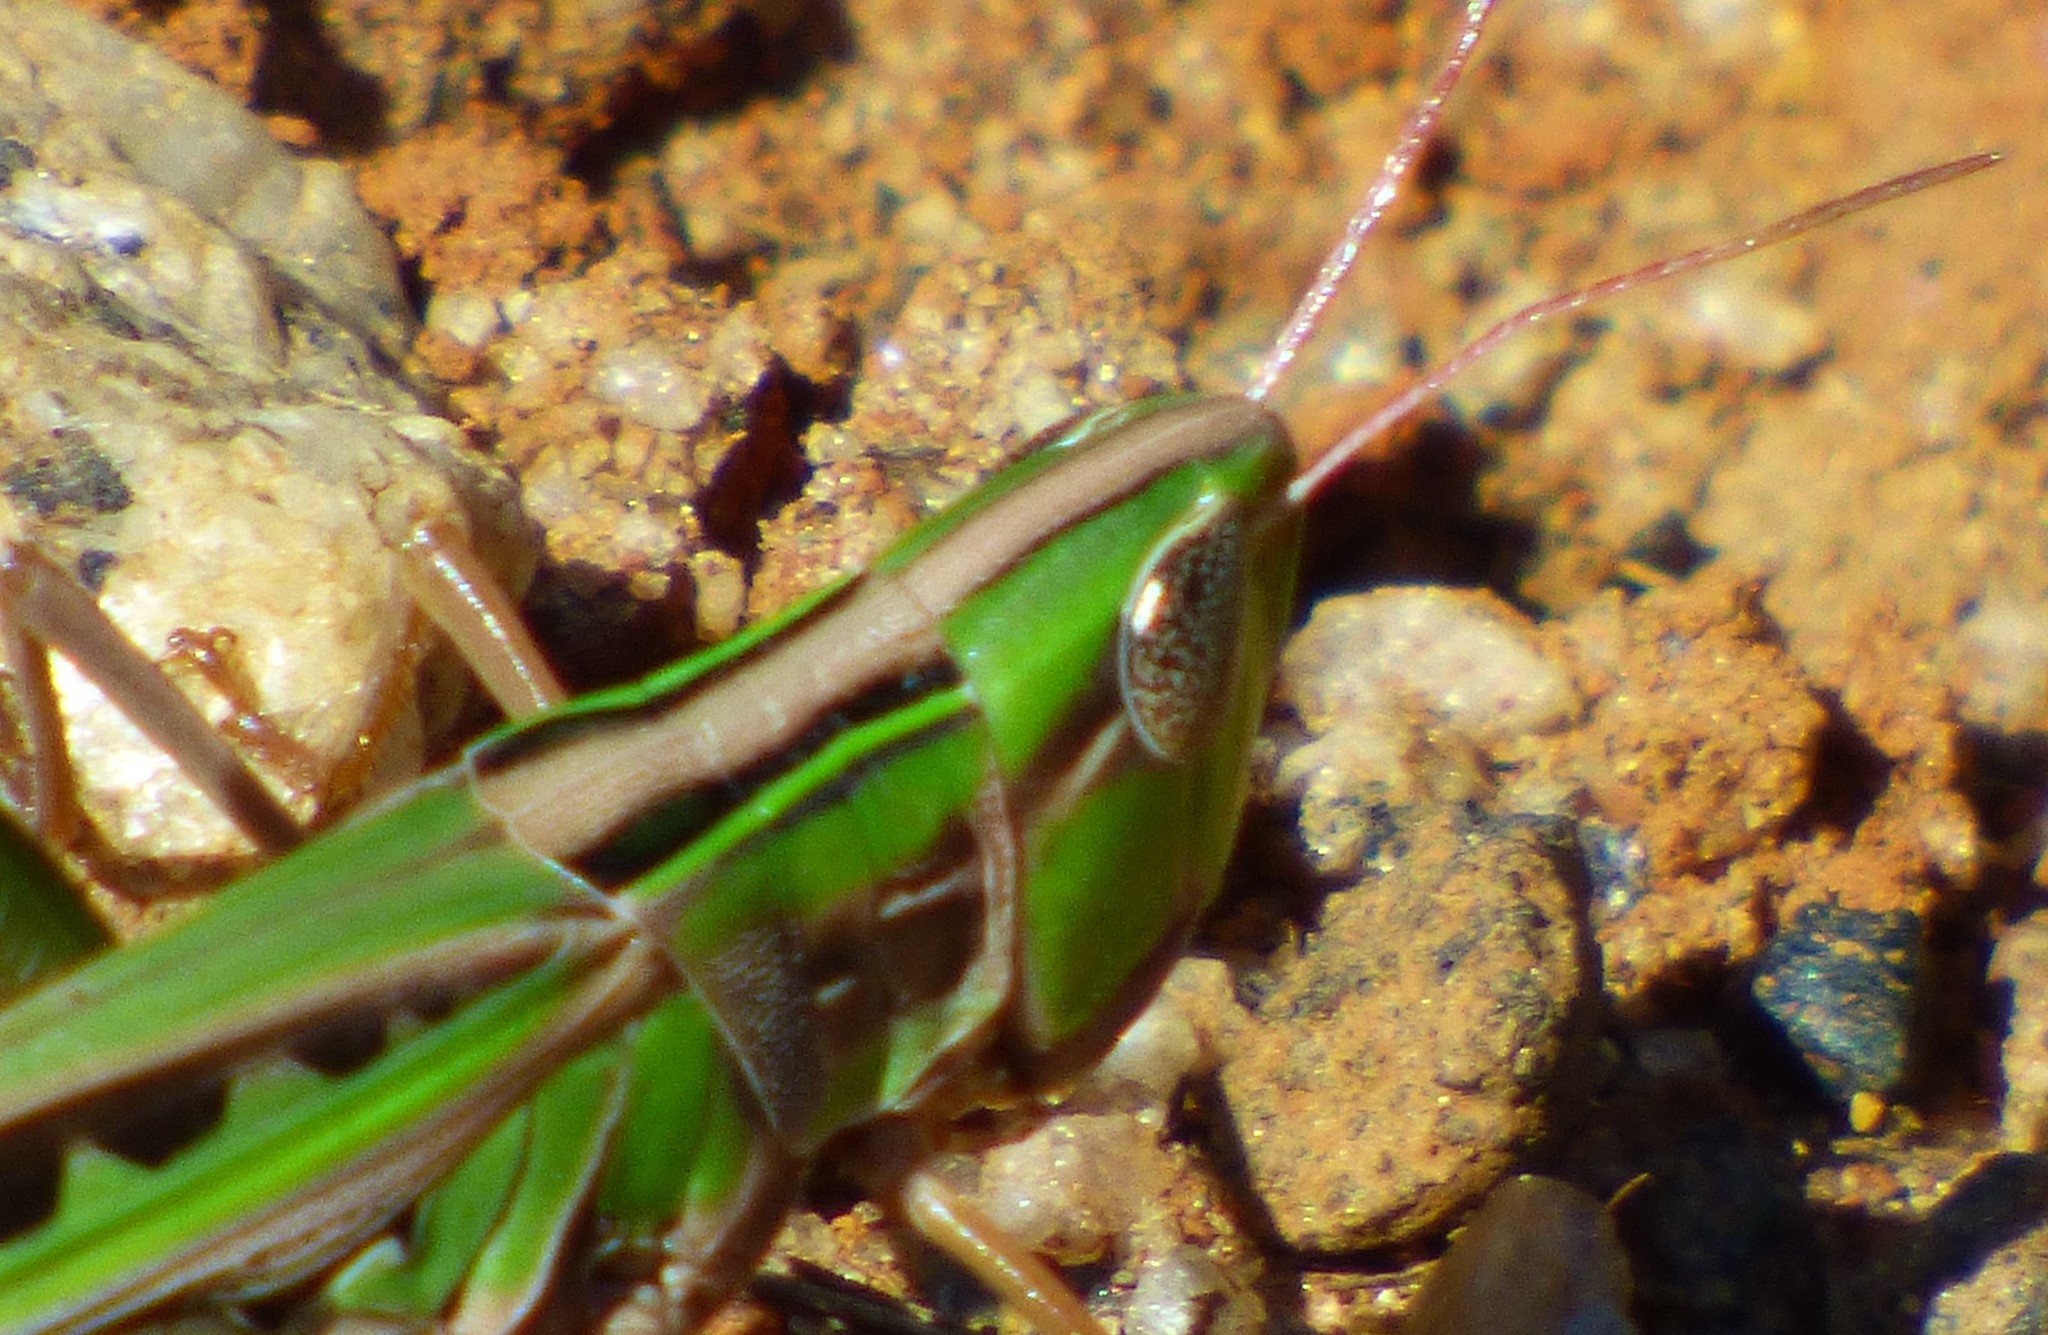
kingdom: Animalia
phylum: Arthropoda
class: Insecta
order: Orthoptera
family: Acrididae
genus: Syrbula
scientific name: Syrbula admirabilis
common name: Handsome grasshopper
